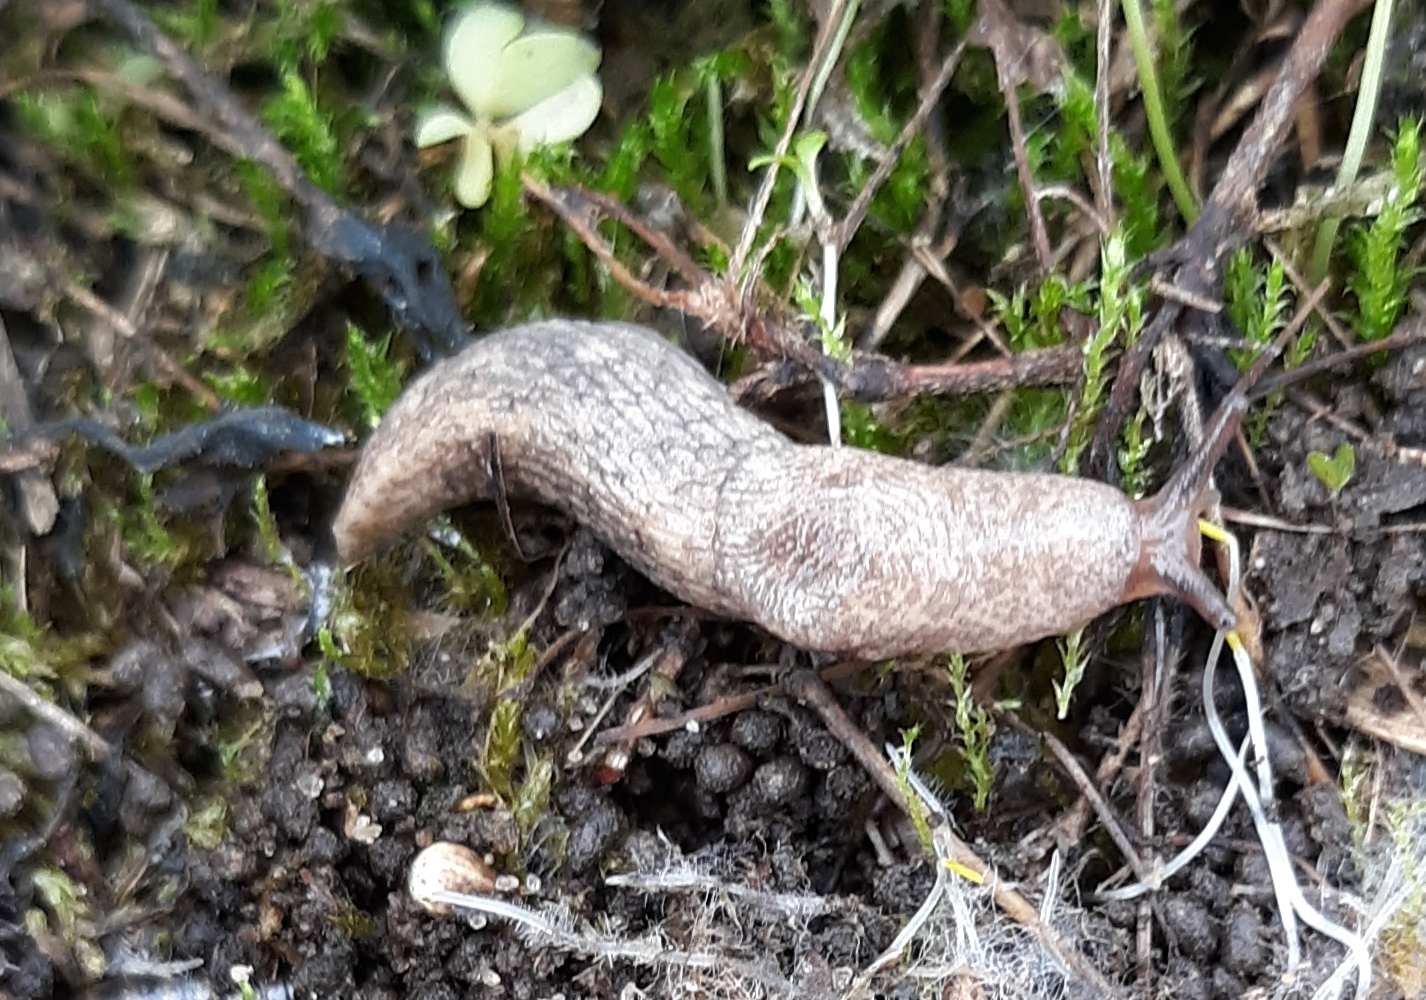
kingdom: Animalia
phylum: Mollusca
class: Gastropoda
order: Stylommatophora
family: Agriolimacidae
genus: Deroceras
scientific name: Deroceras reticulatum
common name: Gray field slug
